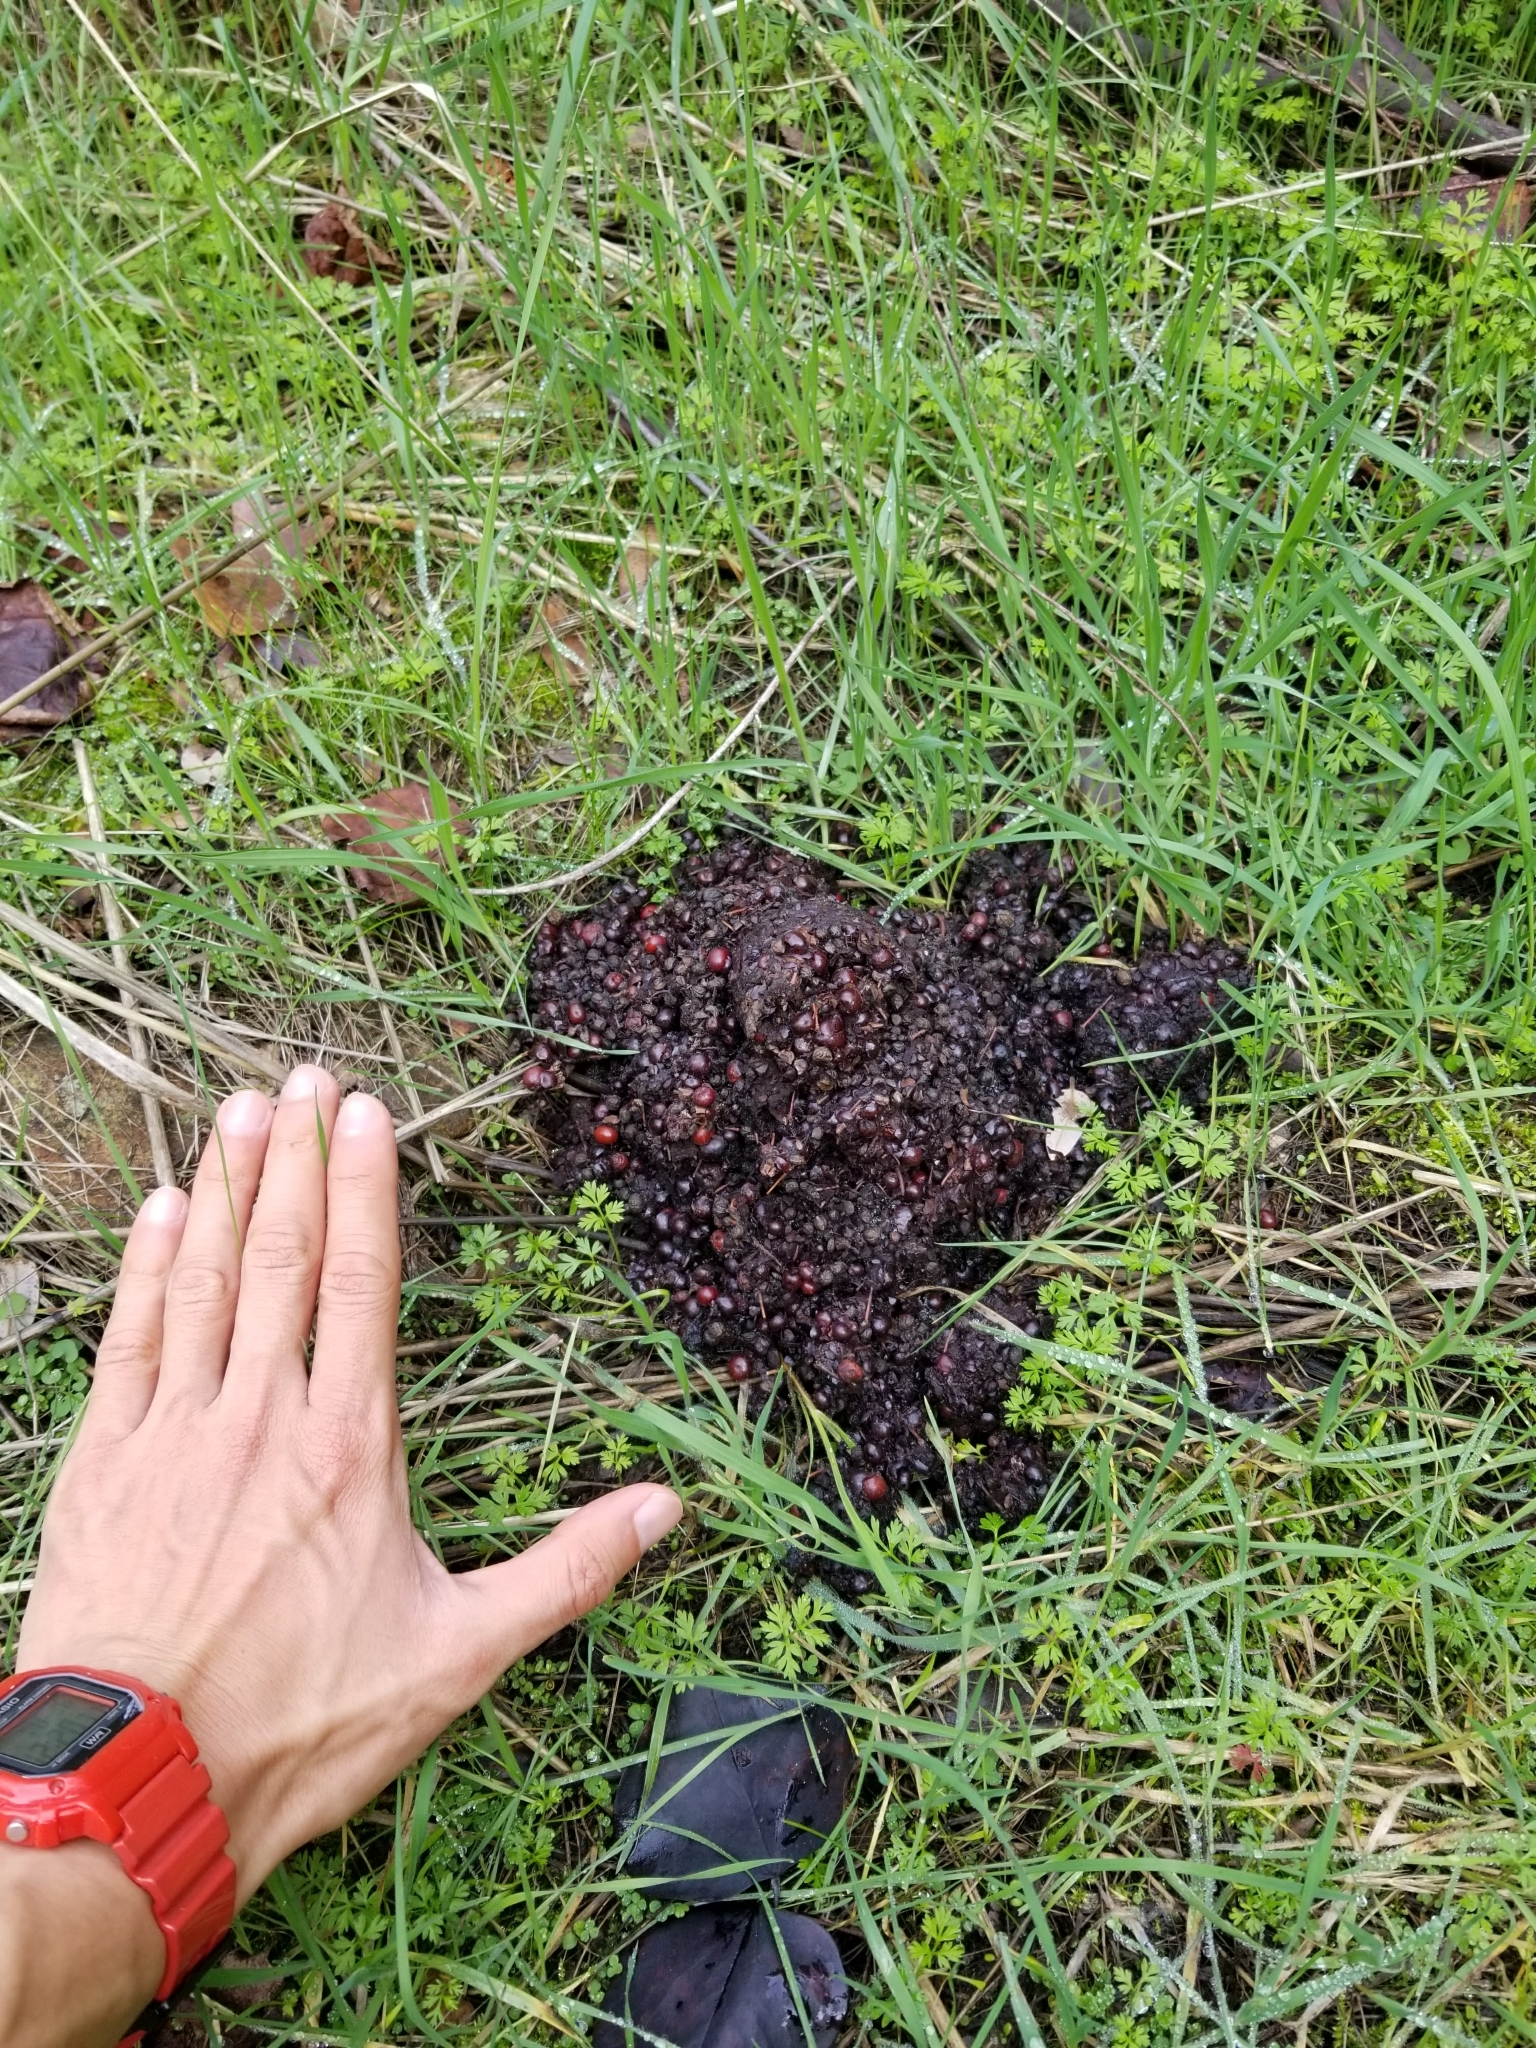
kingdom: Animalia
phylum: Chordata
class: Mammalia
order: Carnivora
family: Ursidae
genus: Ursus
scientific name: Ursus americanus
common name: American black bear
